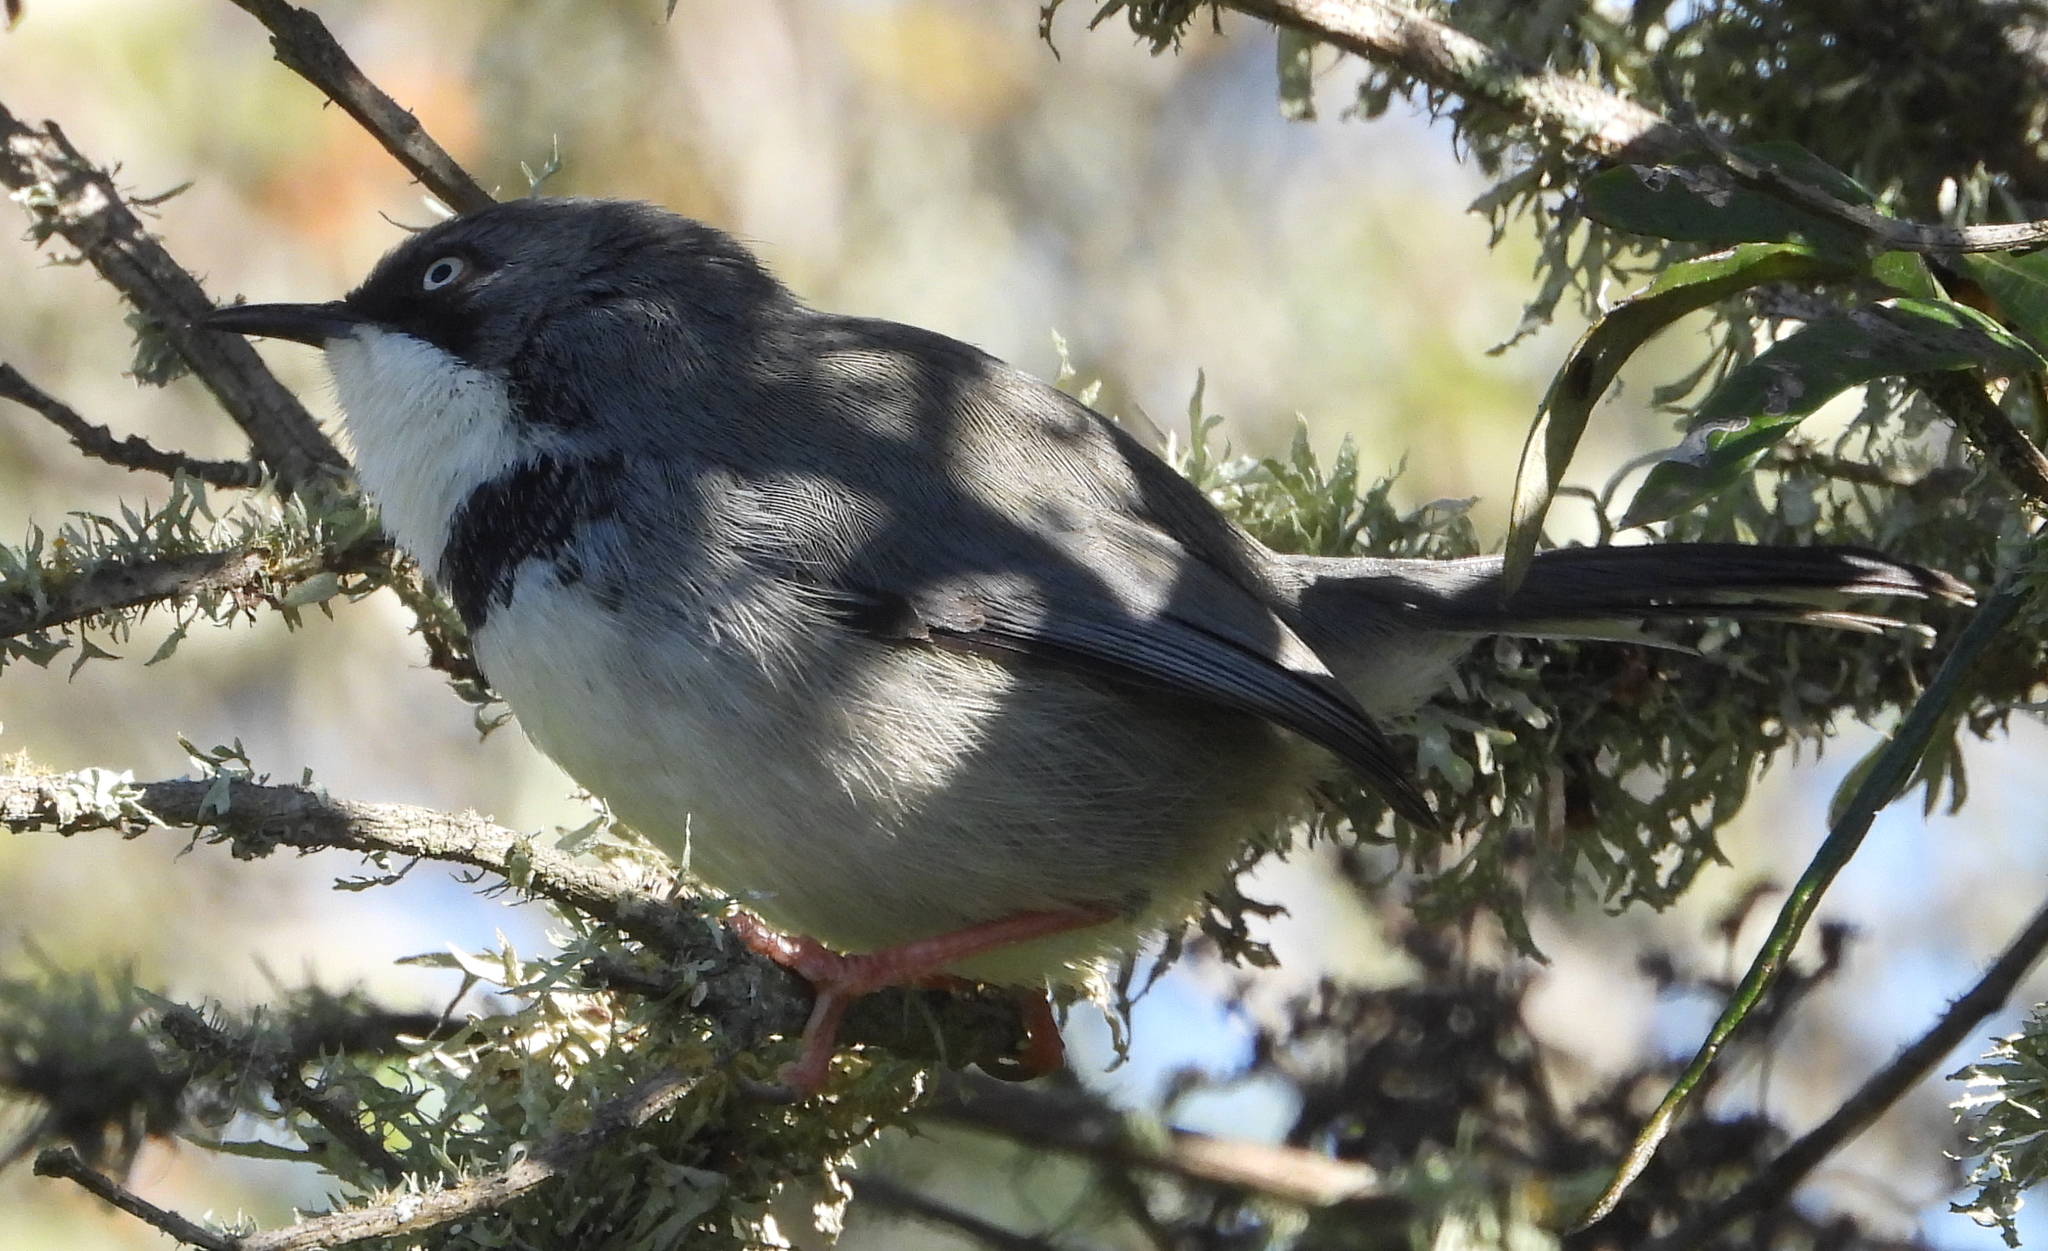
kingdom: Animalia
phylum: Chordata
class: Aves
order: Passeriformes
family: Cisticolidae
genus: Apalis
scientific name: Apalis thoracica
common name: Bar-throated apalis
